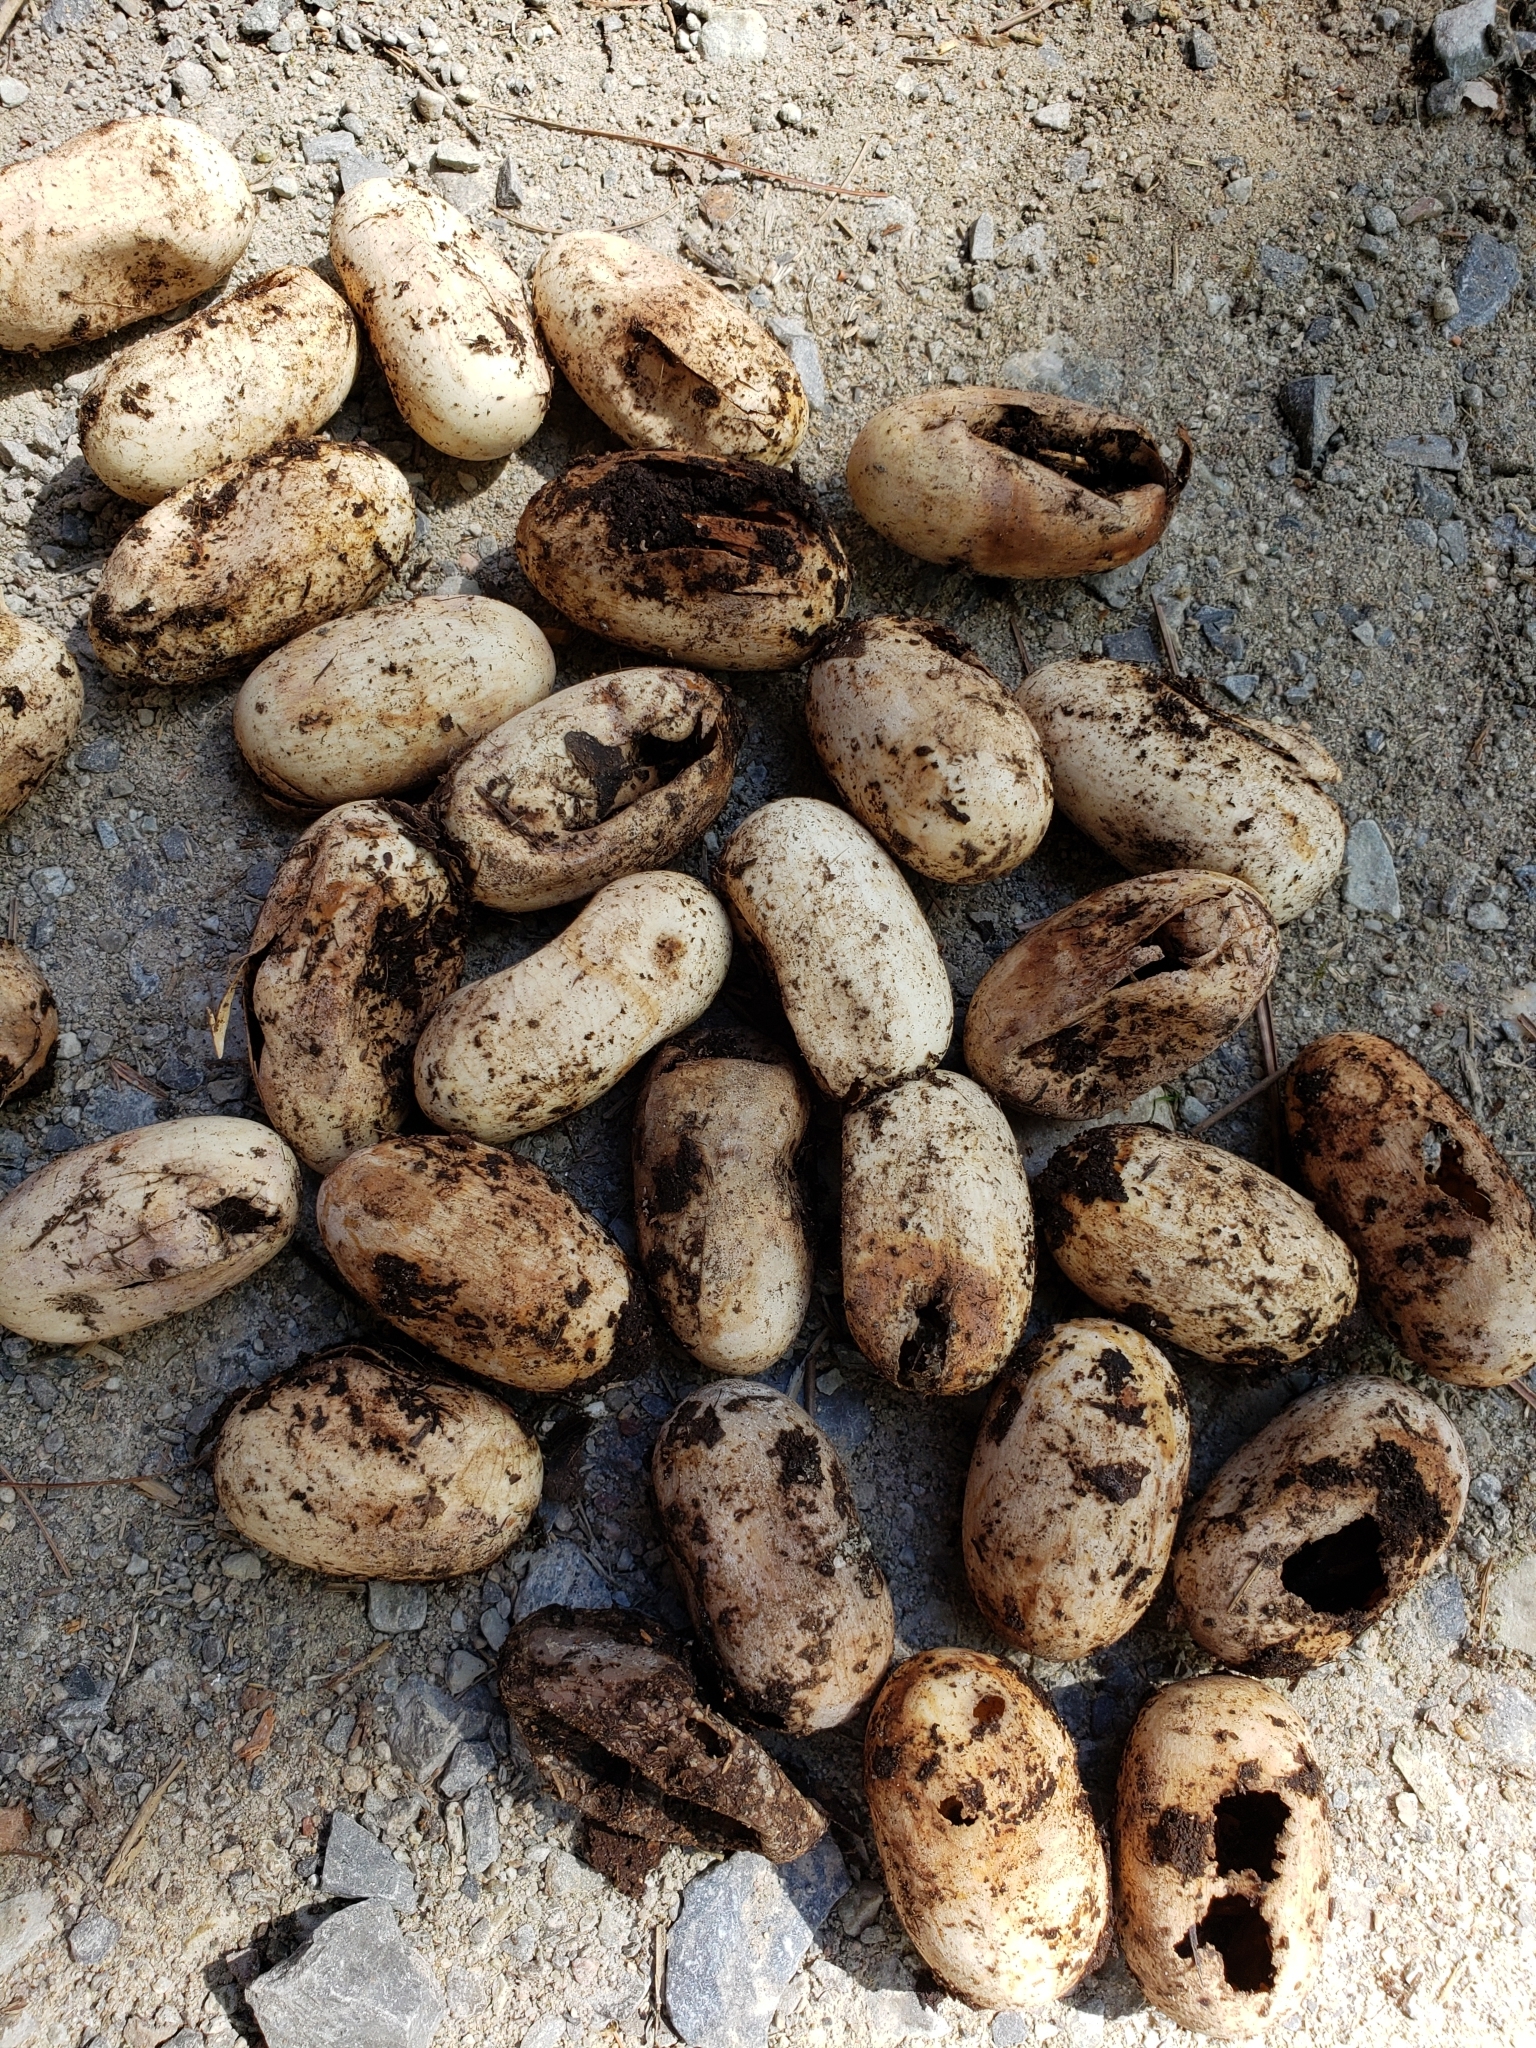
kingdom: Animalia
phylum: Chordata
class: Squamata
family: Colubridae
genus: Pantherophis
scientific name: Pantherophis spiloides
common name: Gray rat snake
